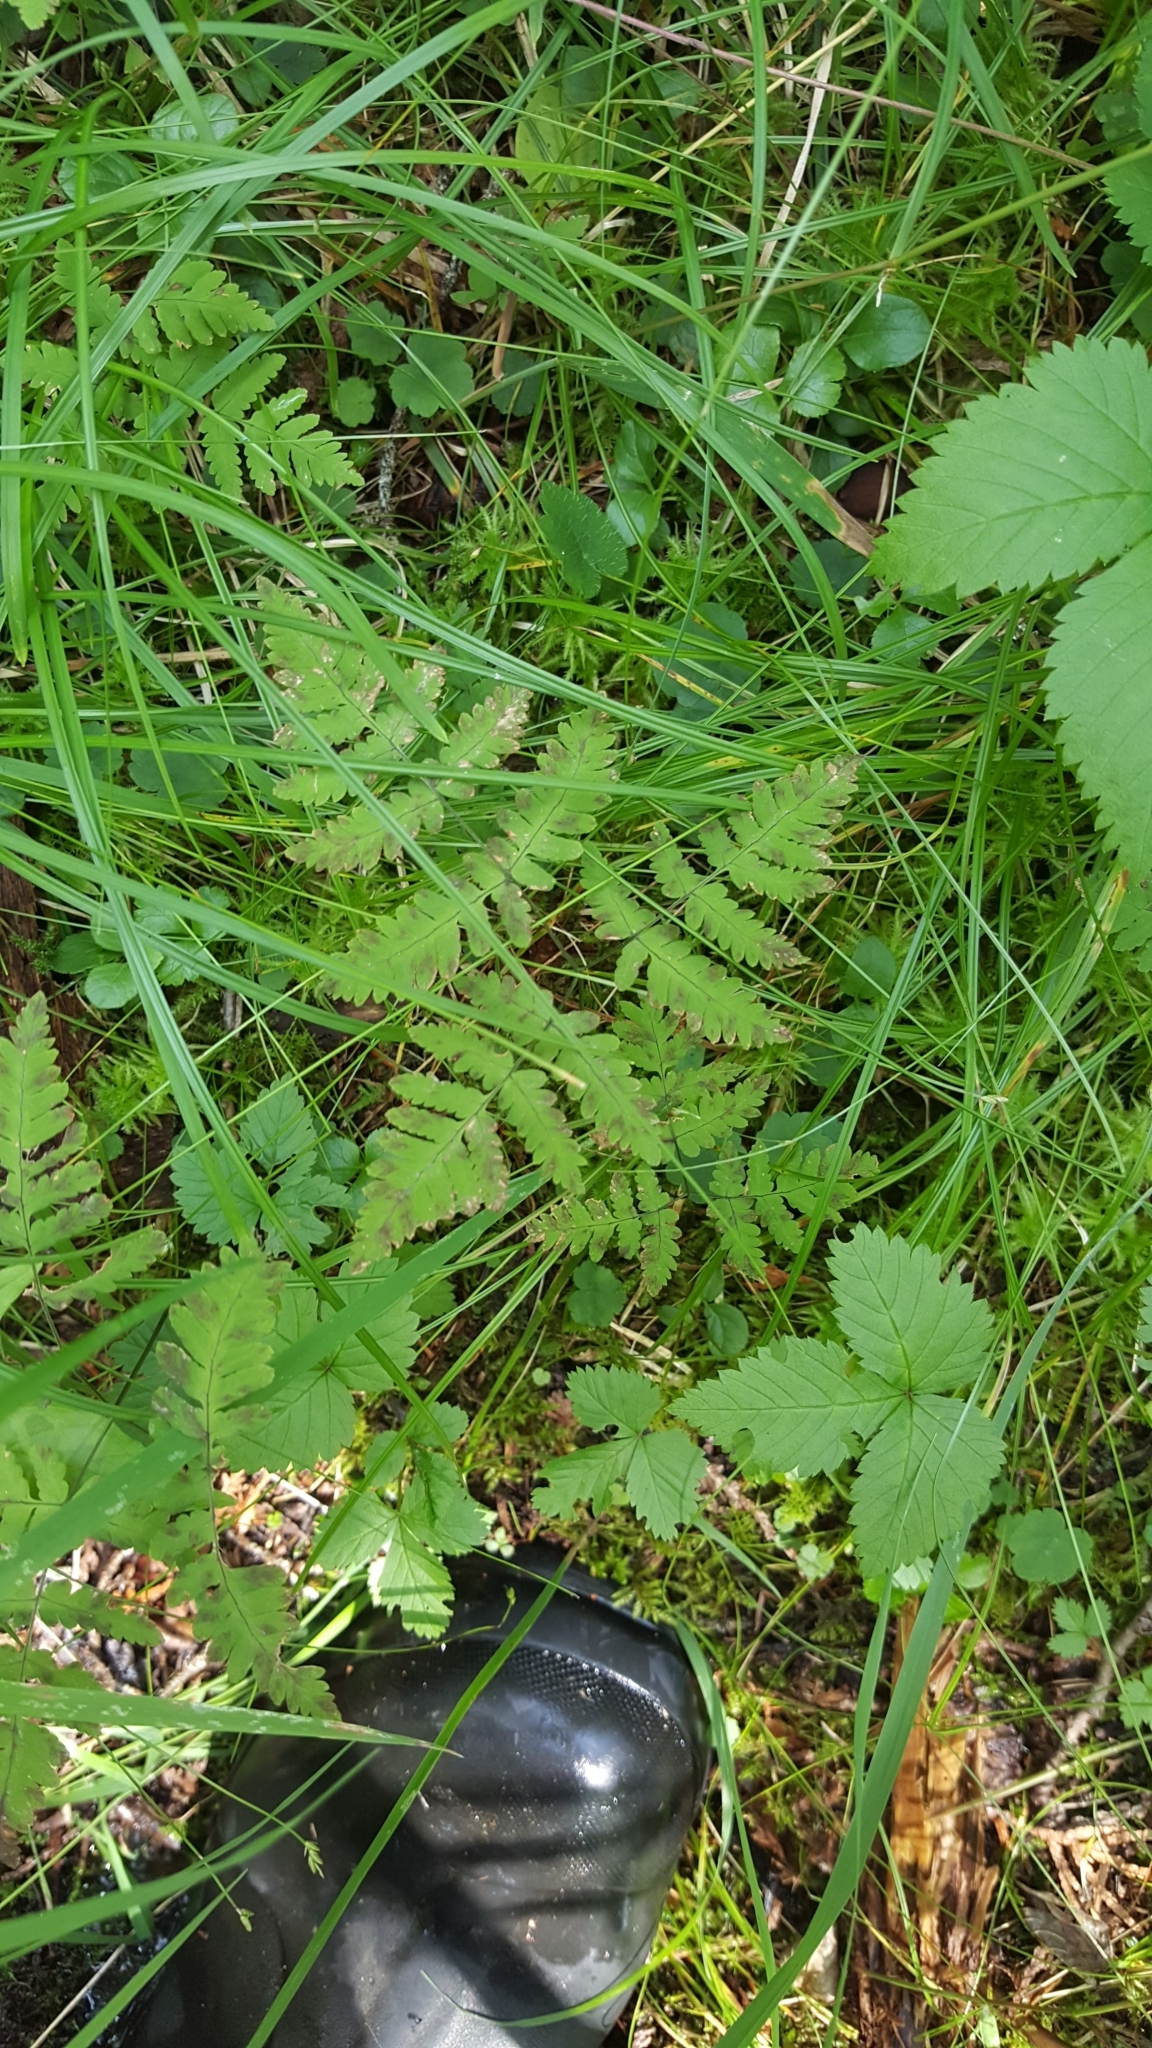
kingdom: Plantae
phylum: Tracheophyta
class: Polypodiopsida
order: Polypodiales
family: Cystopteridaceae
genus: Gymnocarpium
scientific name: Gymnocarpium dryopteris
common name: Oak fern
